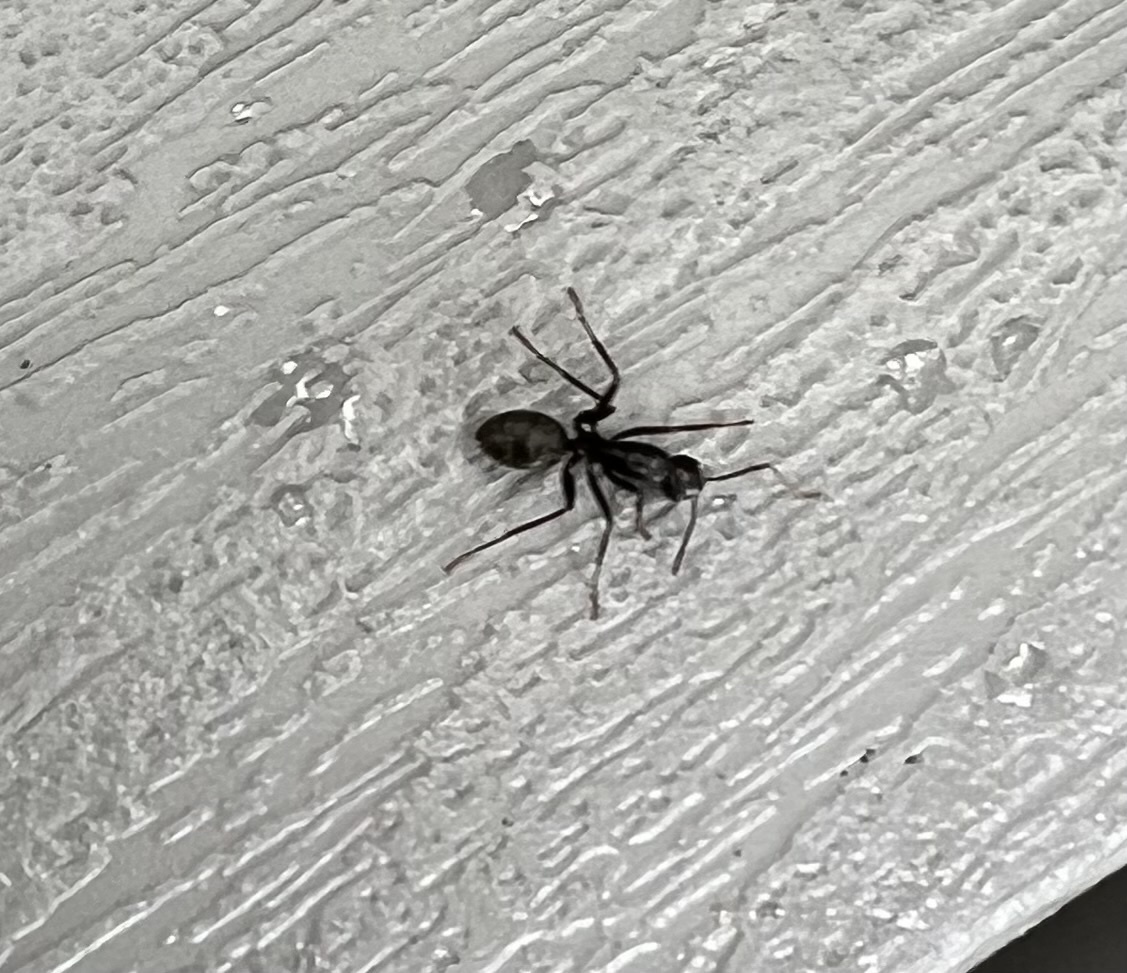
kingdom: Animalia
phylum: Arthropoda
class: Insecta
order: Hymenoptera
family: Formicidae
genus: Camponotus
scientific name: Camponotus pennsylvanicus
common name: Black carpenter ant
